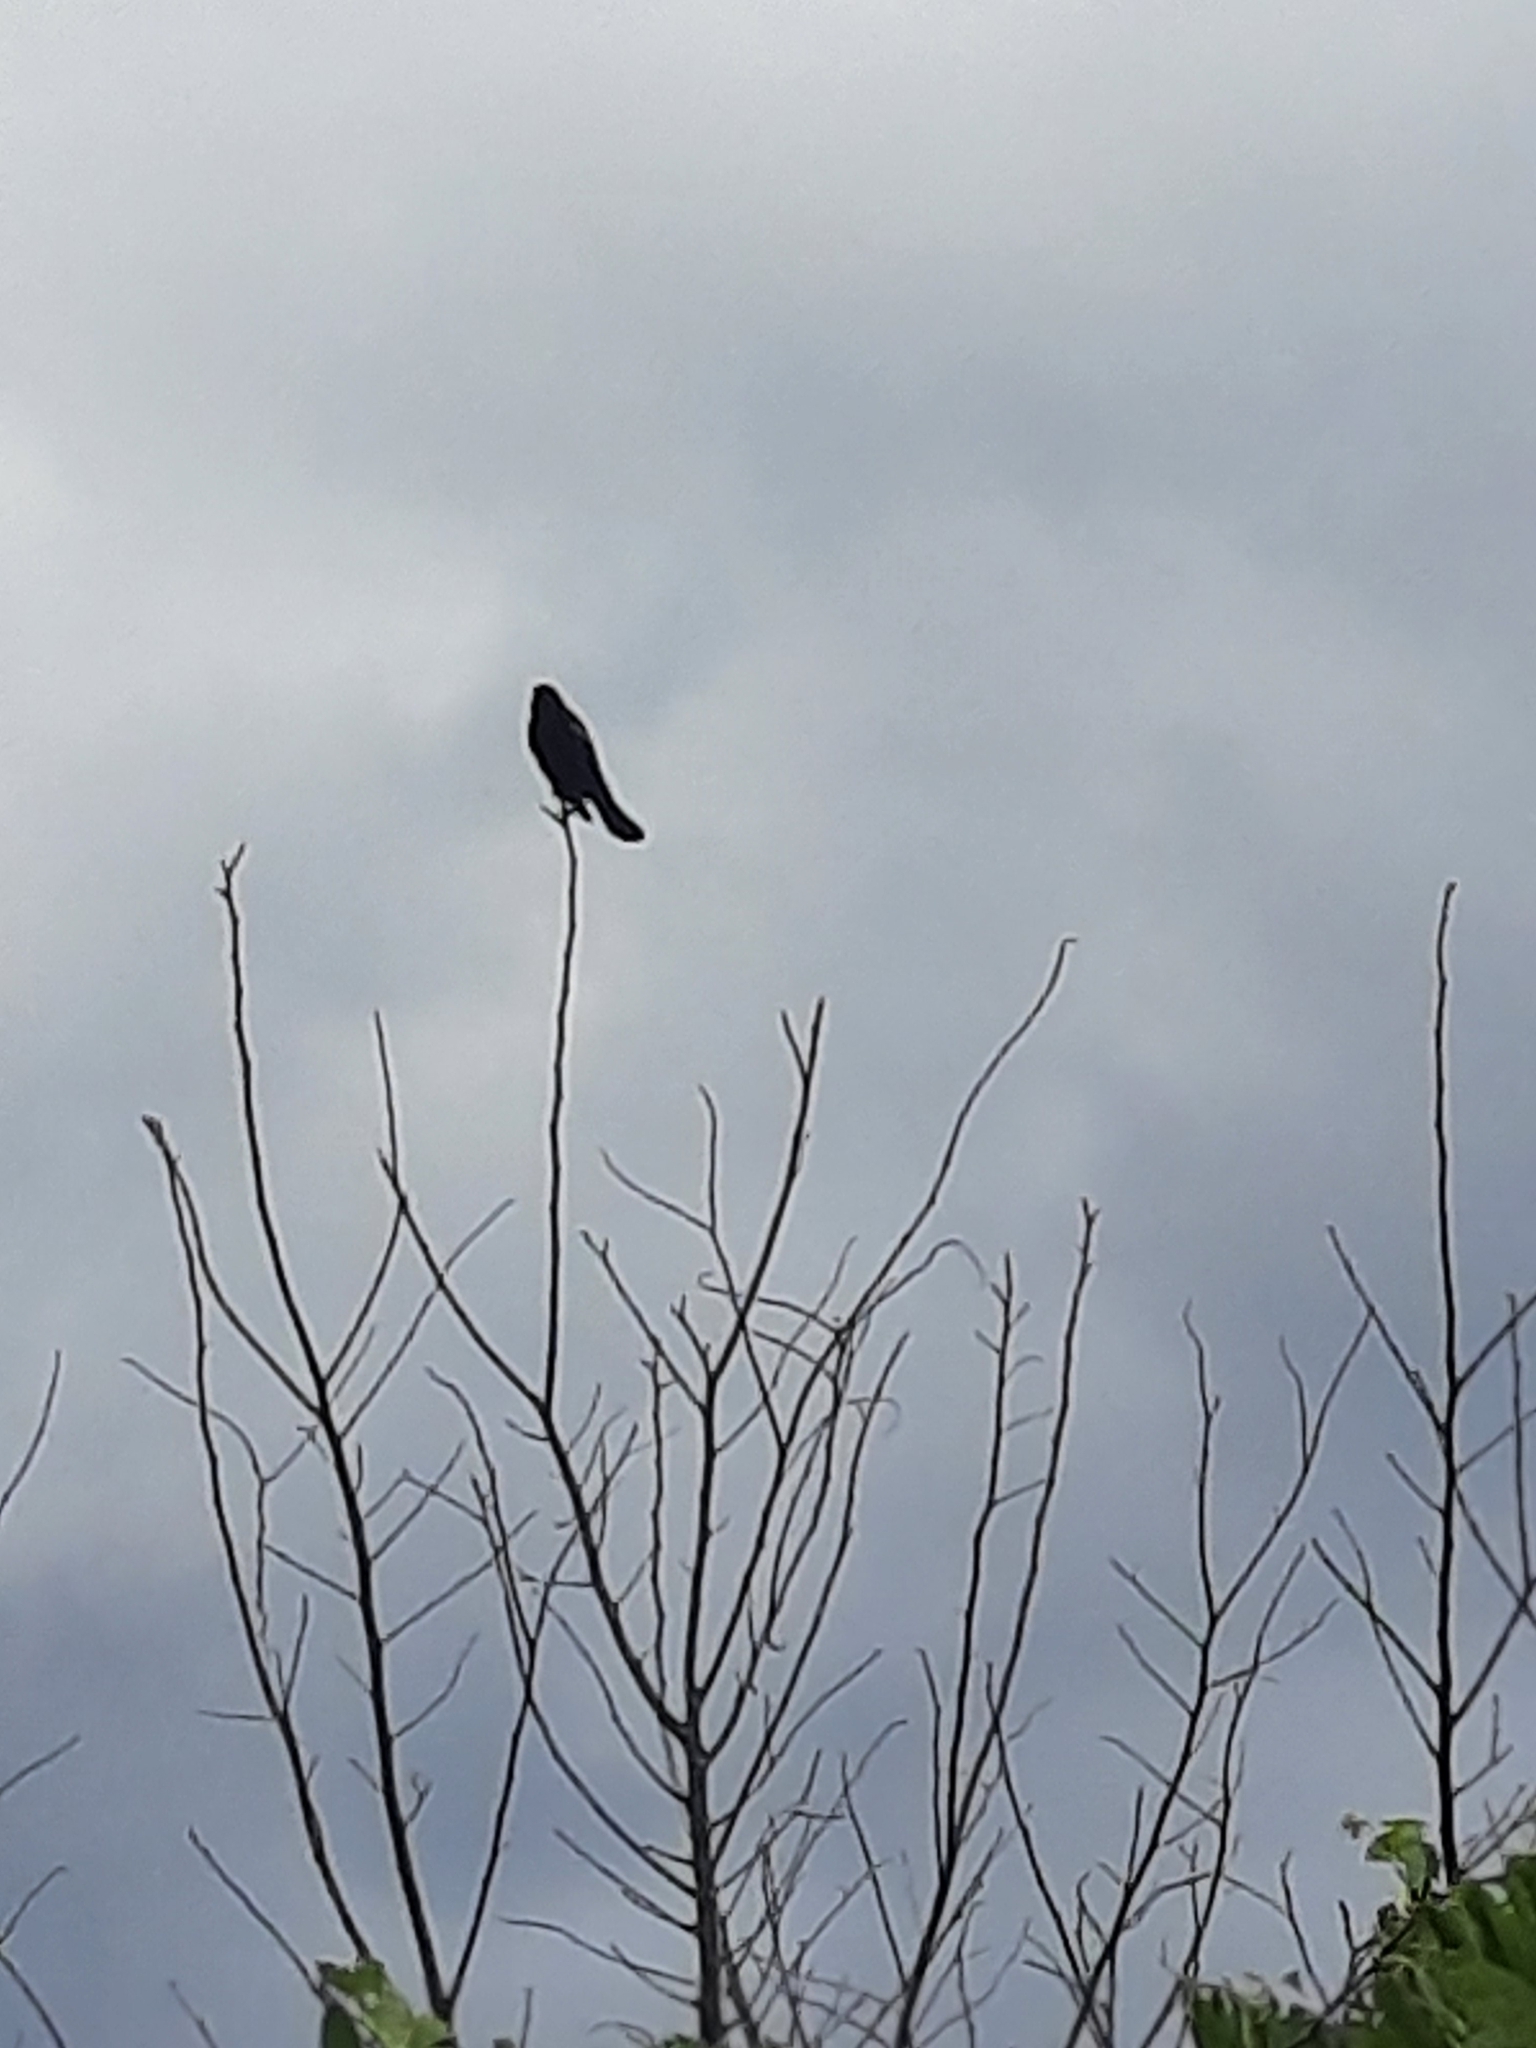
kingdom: Animalia
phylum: Chordata
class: Aves
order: Passeriformes
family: Icteridae
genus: Agelaius
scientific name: Agelaius phoeniceus
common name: Red-winged blackbird
